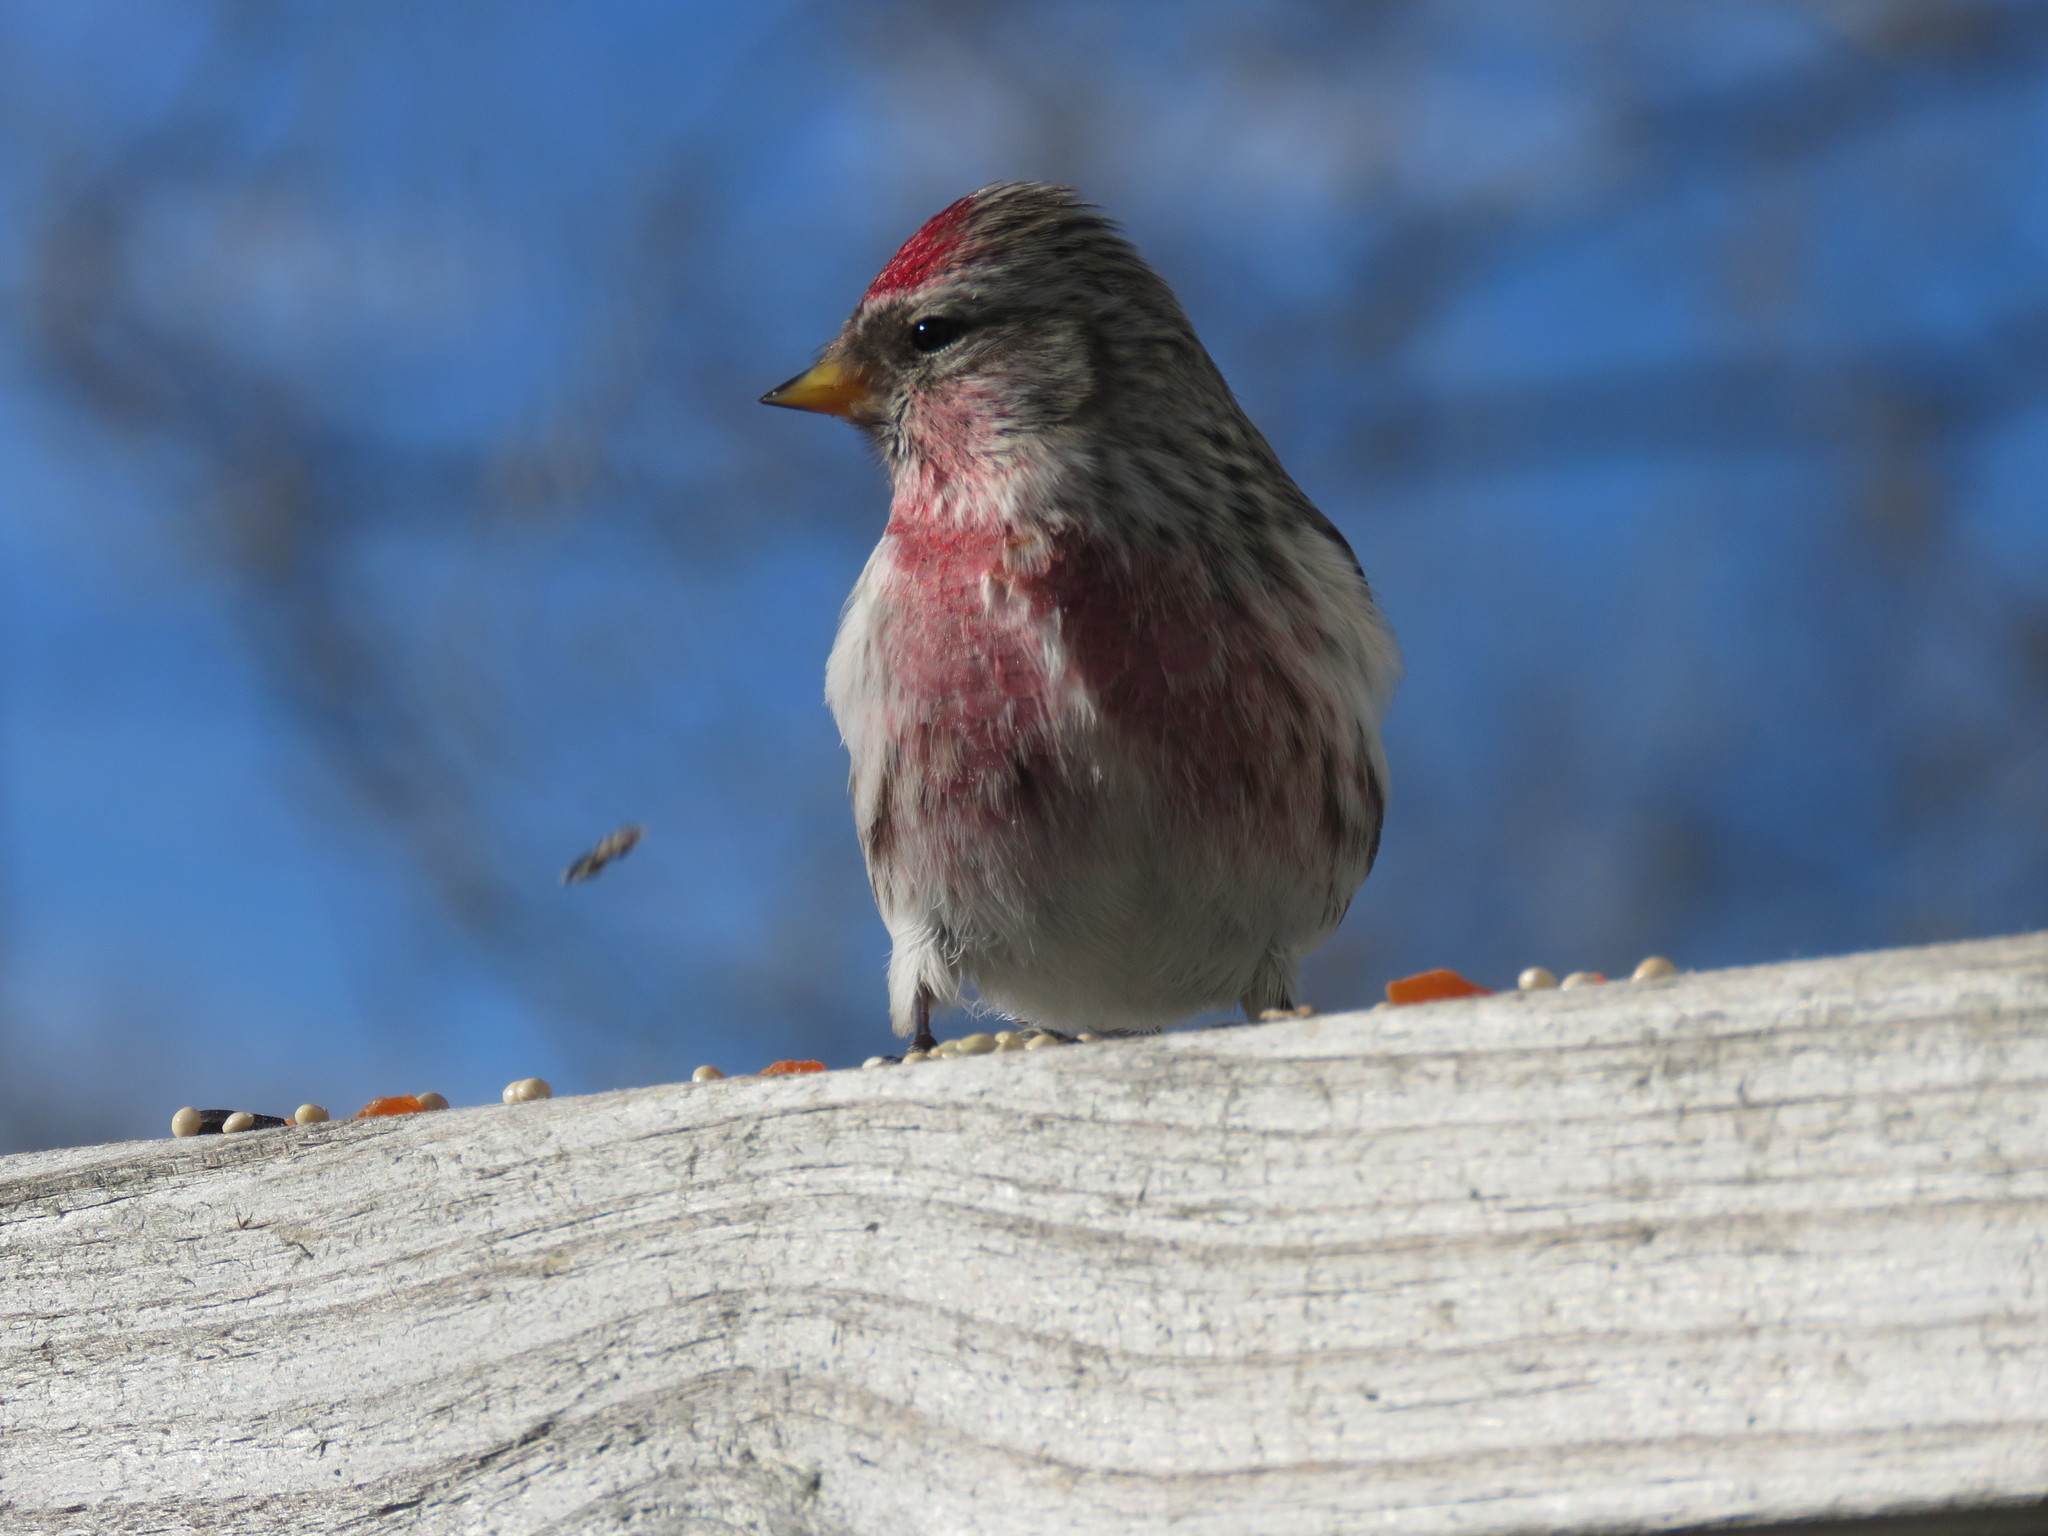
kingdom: Animalia
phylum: Chordata
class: Aves
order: Passeriformes
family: Fringillidae
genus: Acanthis
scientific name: Acanthis flammea
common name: Common redpoll
